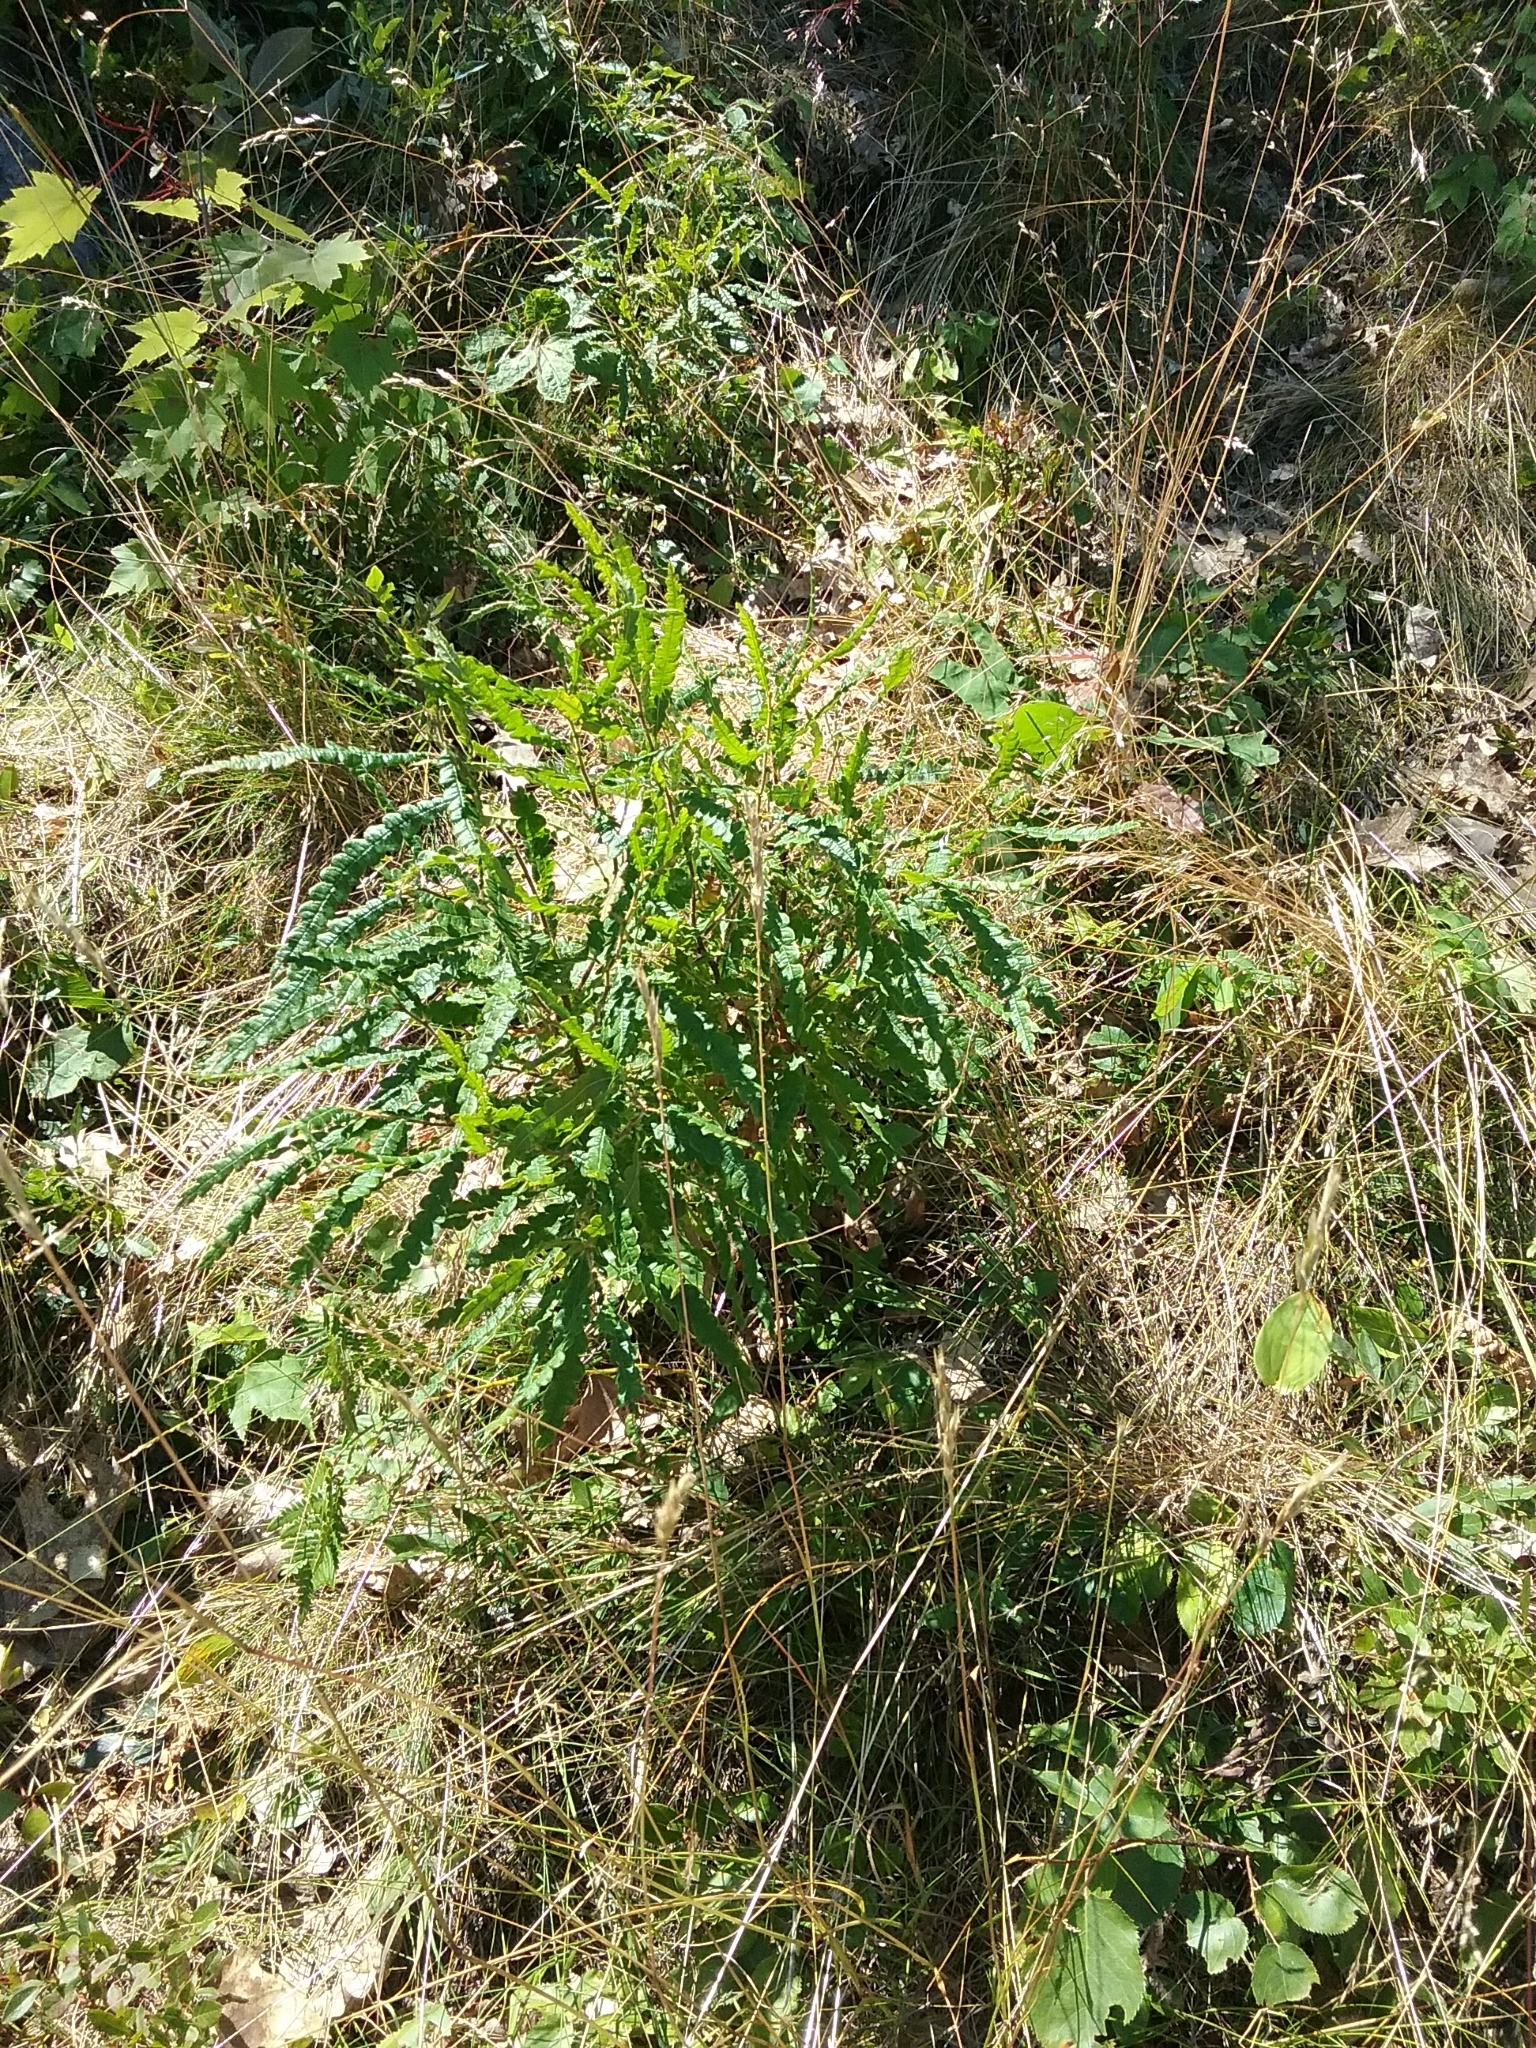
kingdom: Plantae
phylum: Tracheophyta
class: Magnoliopsida
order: Fagales
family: Myricaceae
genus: Comptonia
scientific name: Comptonia peregrina
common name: Sweet-fern
